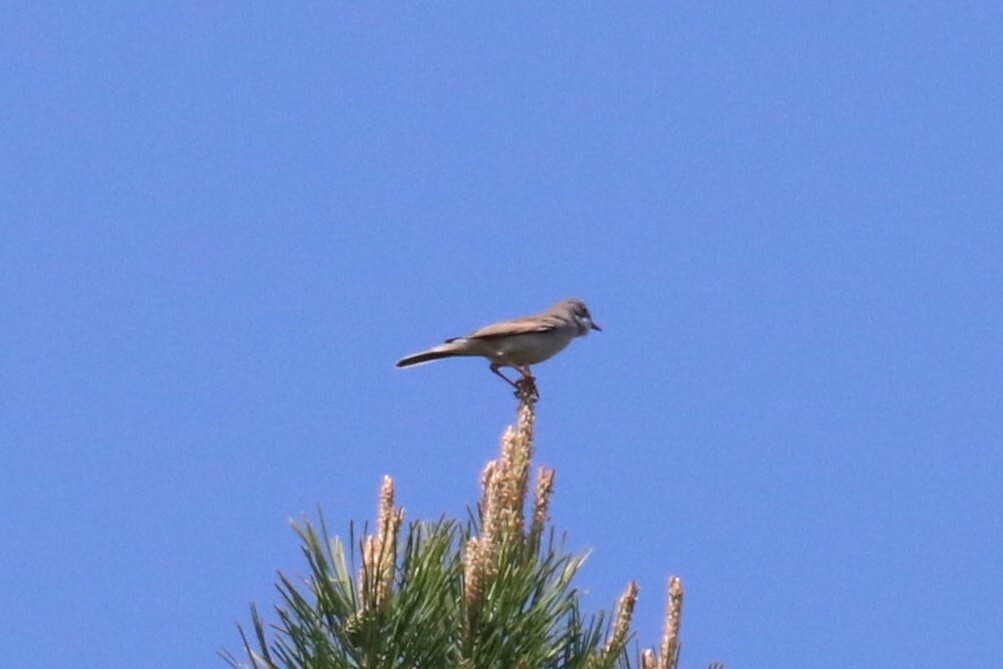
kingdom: Animalia
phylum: Chordata
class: Aves
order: Passeriformes
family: Sylviidae
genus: Sylvia
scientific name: Sylvia communis
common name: Common whitethroat
